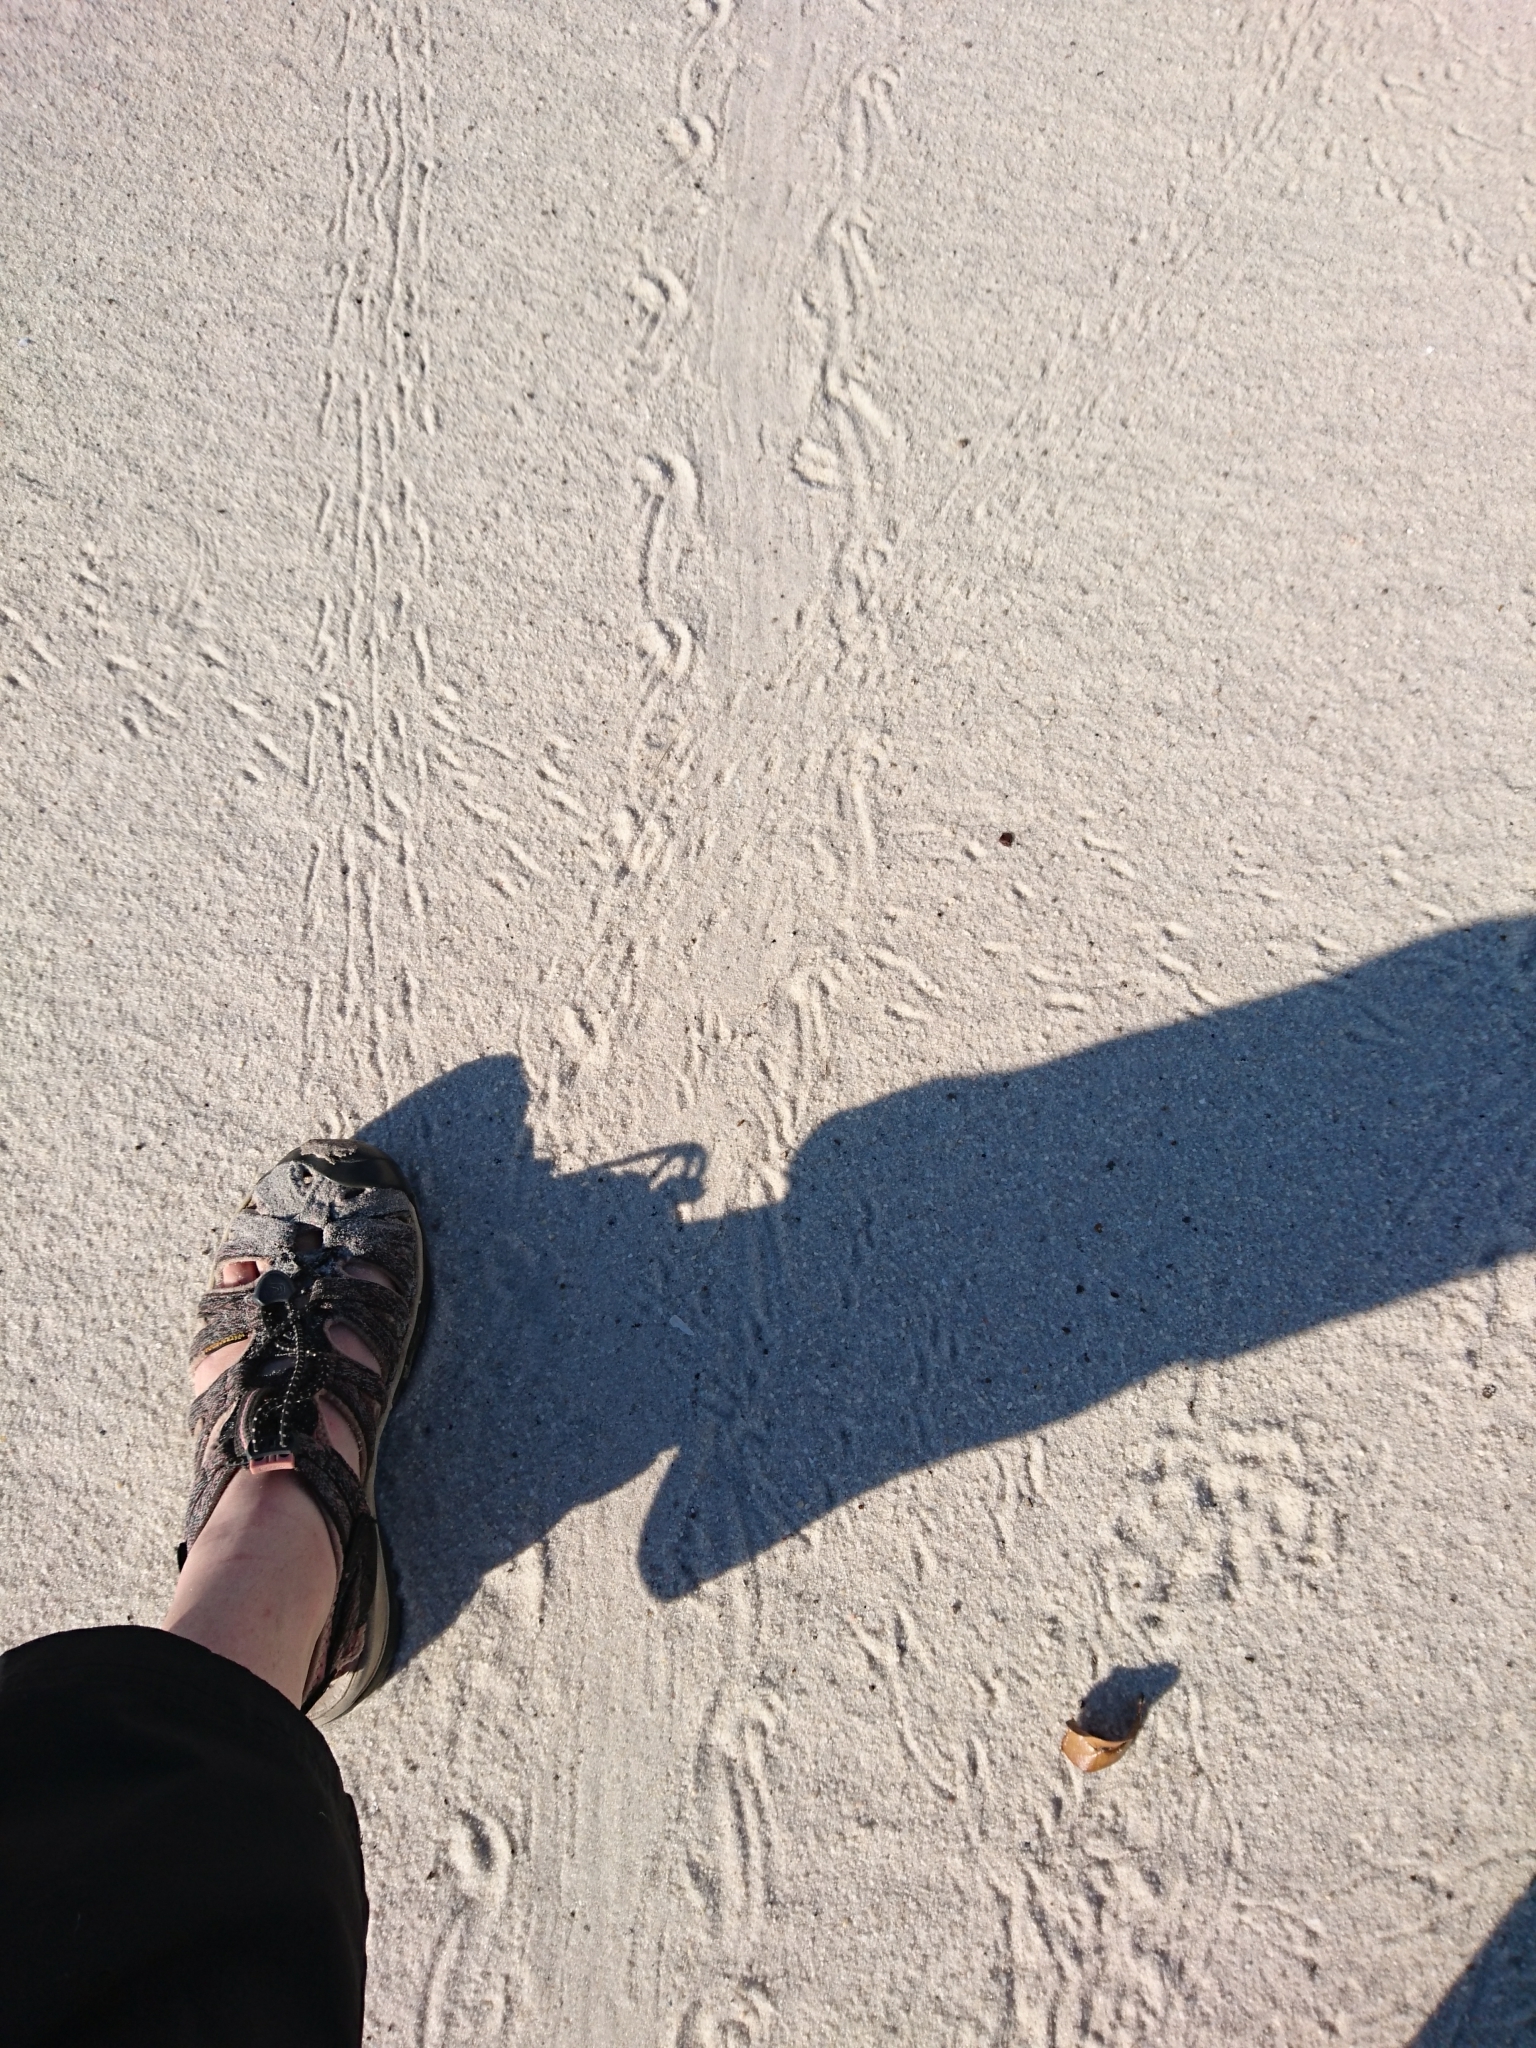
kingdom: Animalia
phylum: Chordata
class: Testudines
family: Emydidae
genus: Malaclemys
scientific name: Malaclemys terrapin
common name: Diamondback terrapin
